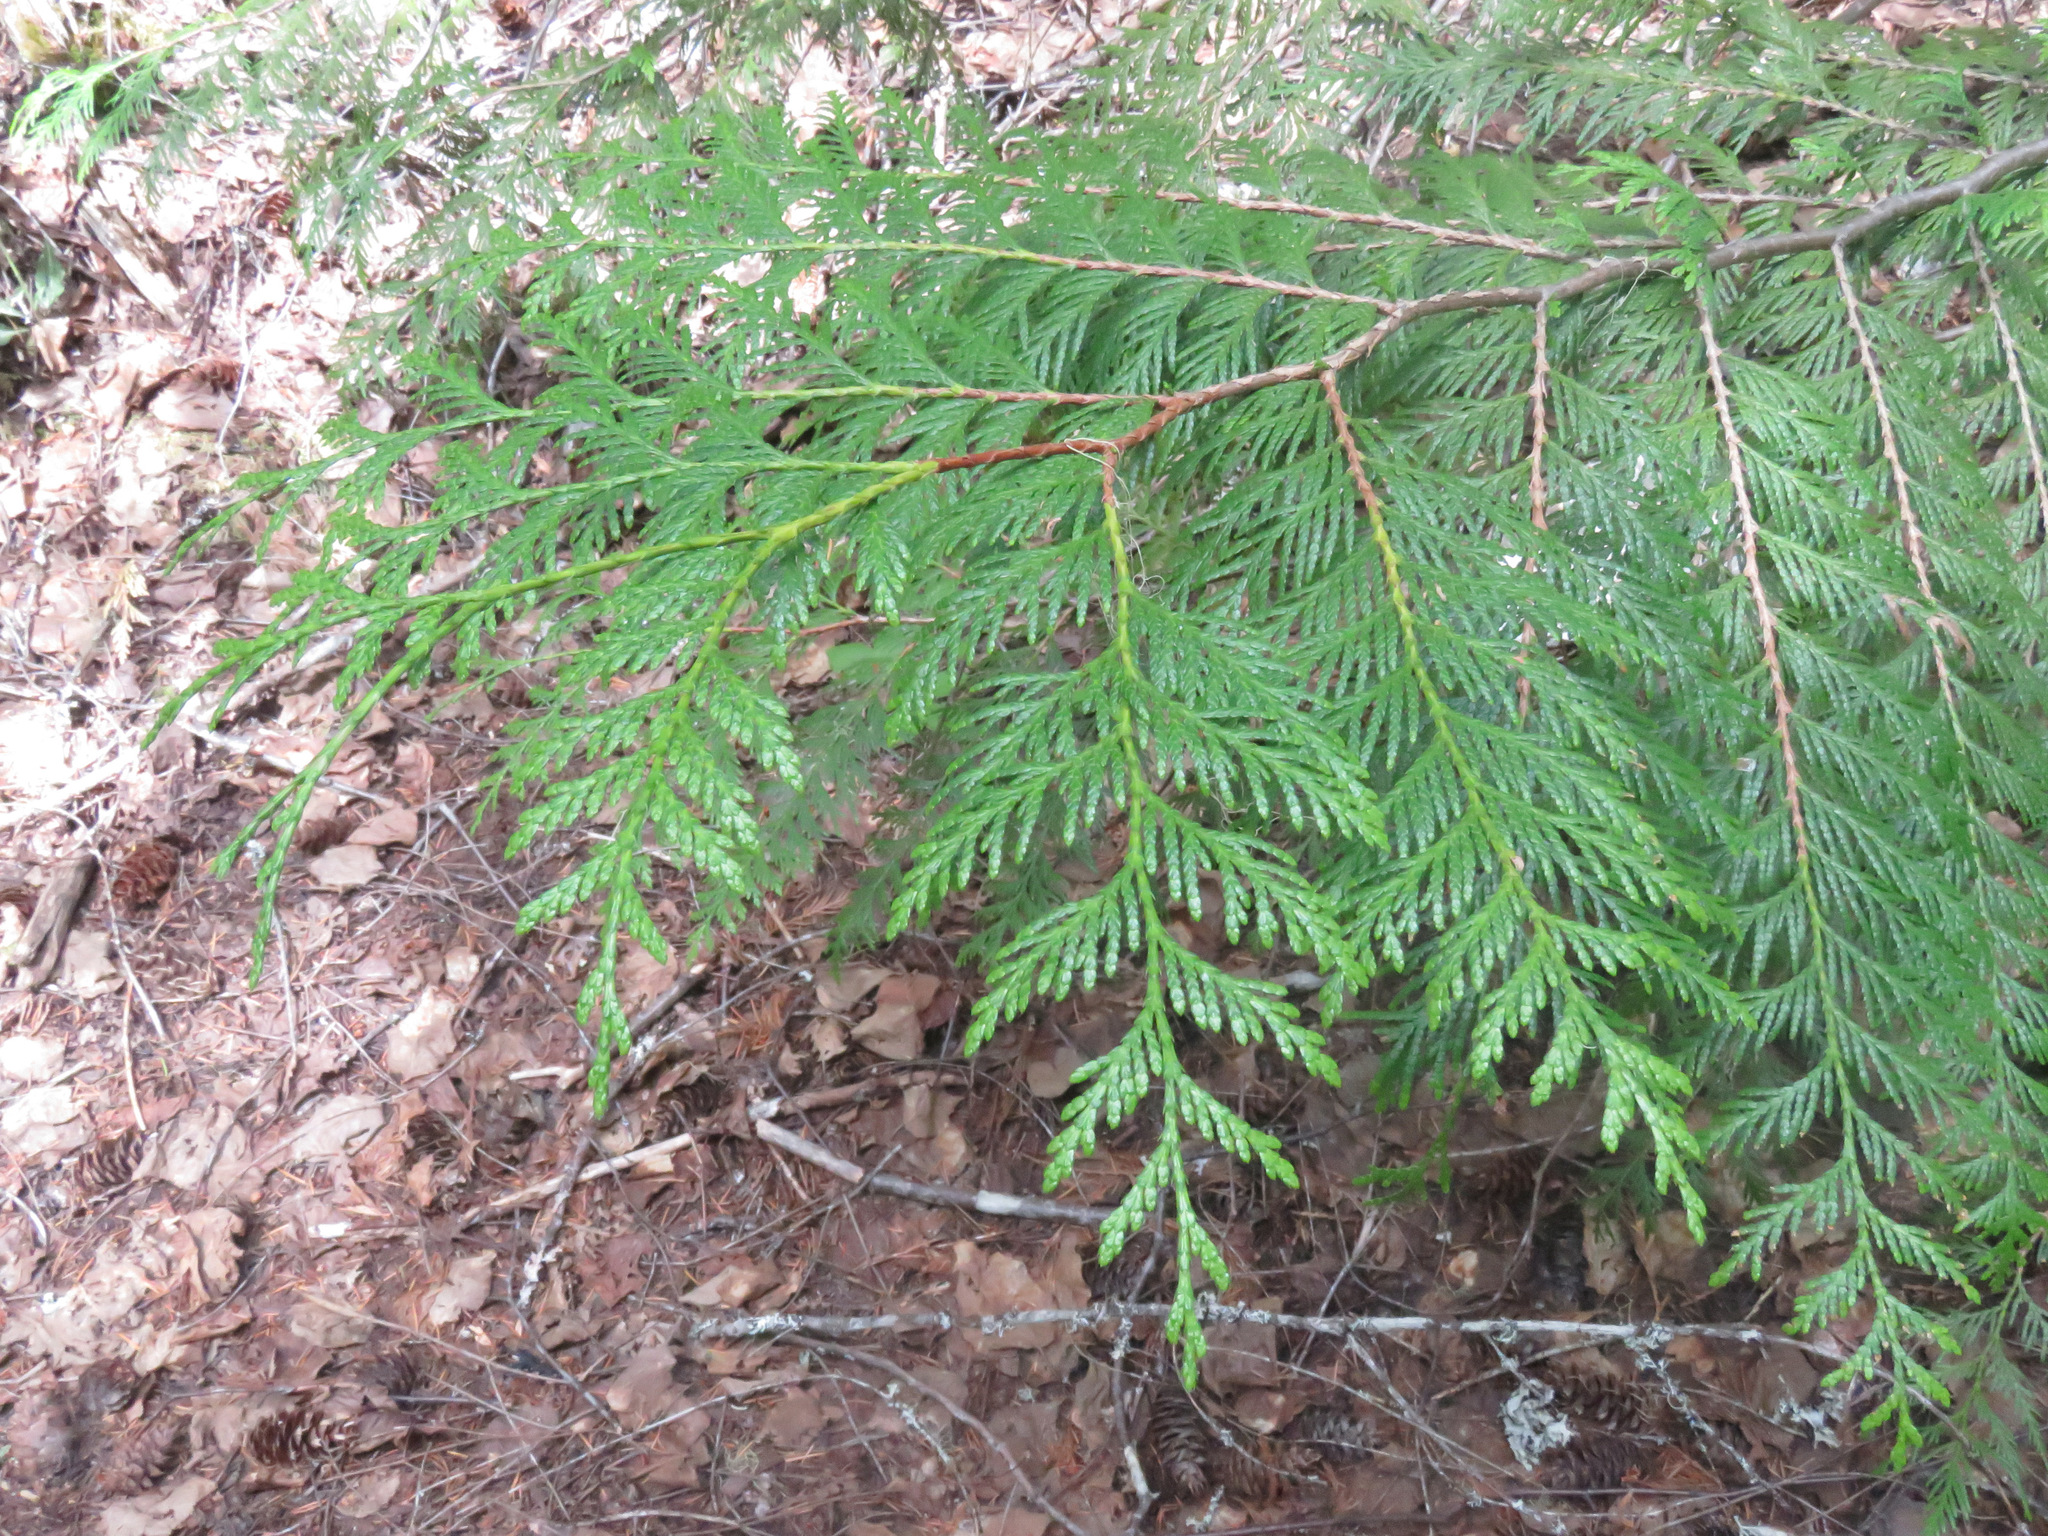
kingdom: Plantae
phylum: Tracheophyta
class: Pinopsida
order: Pinales
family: Cupressaceae
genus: Thuja
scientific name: Thuja plicata
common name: Western red-cedar
